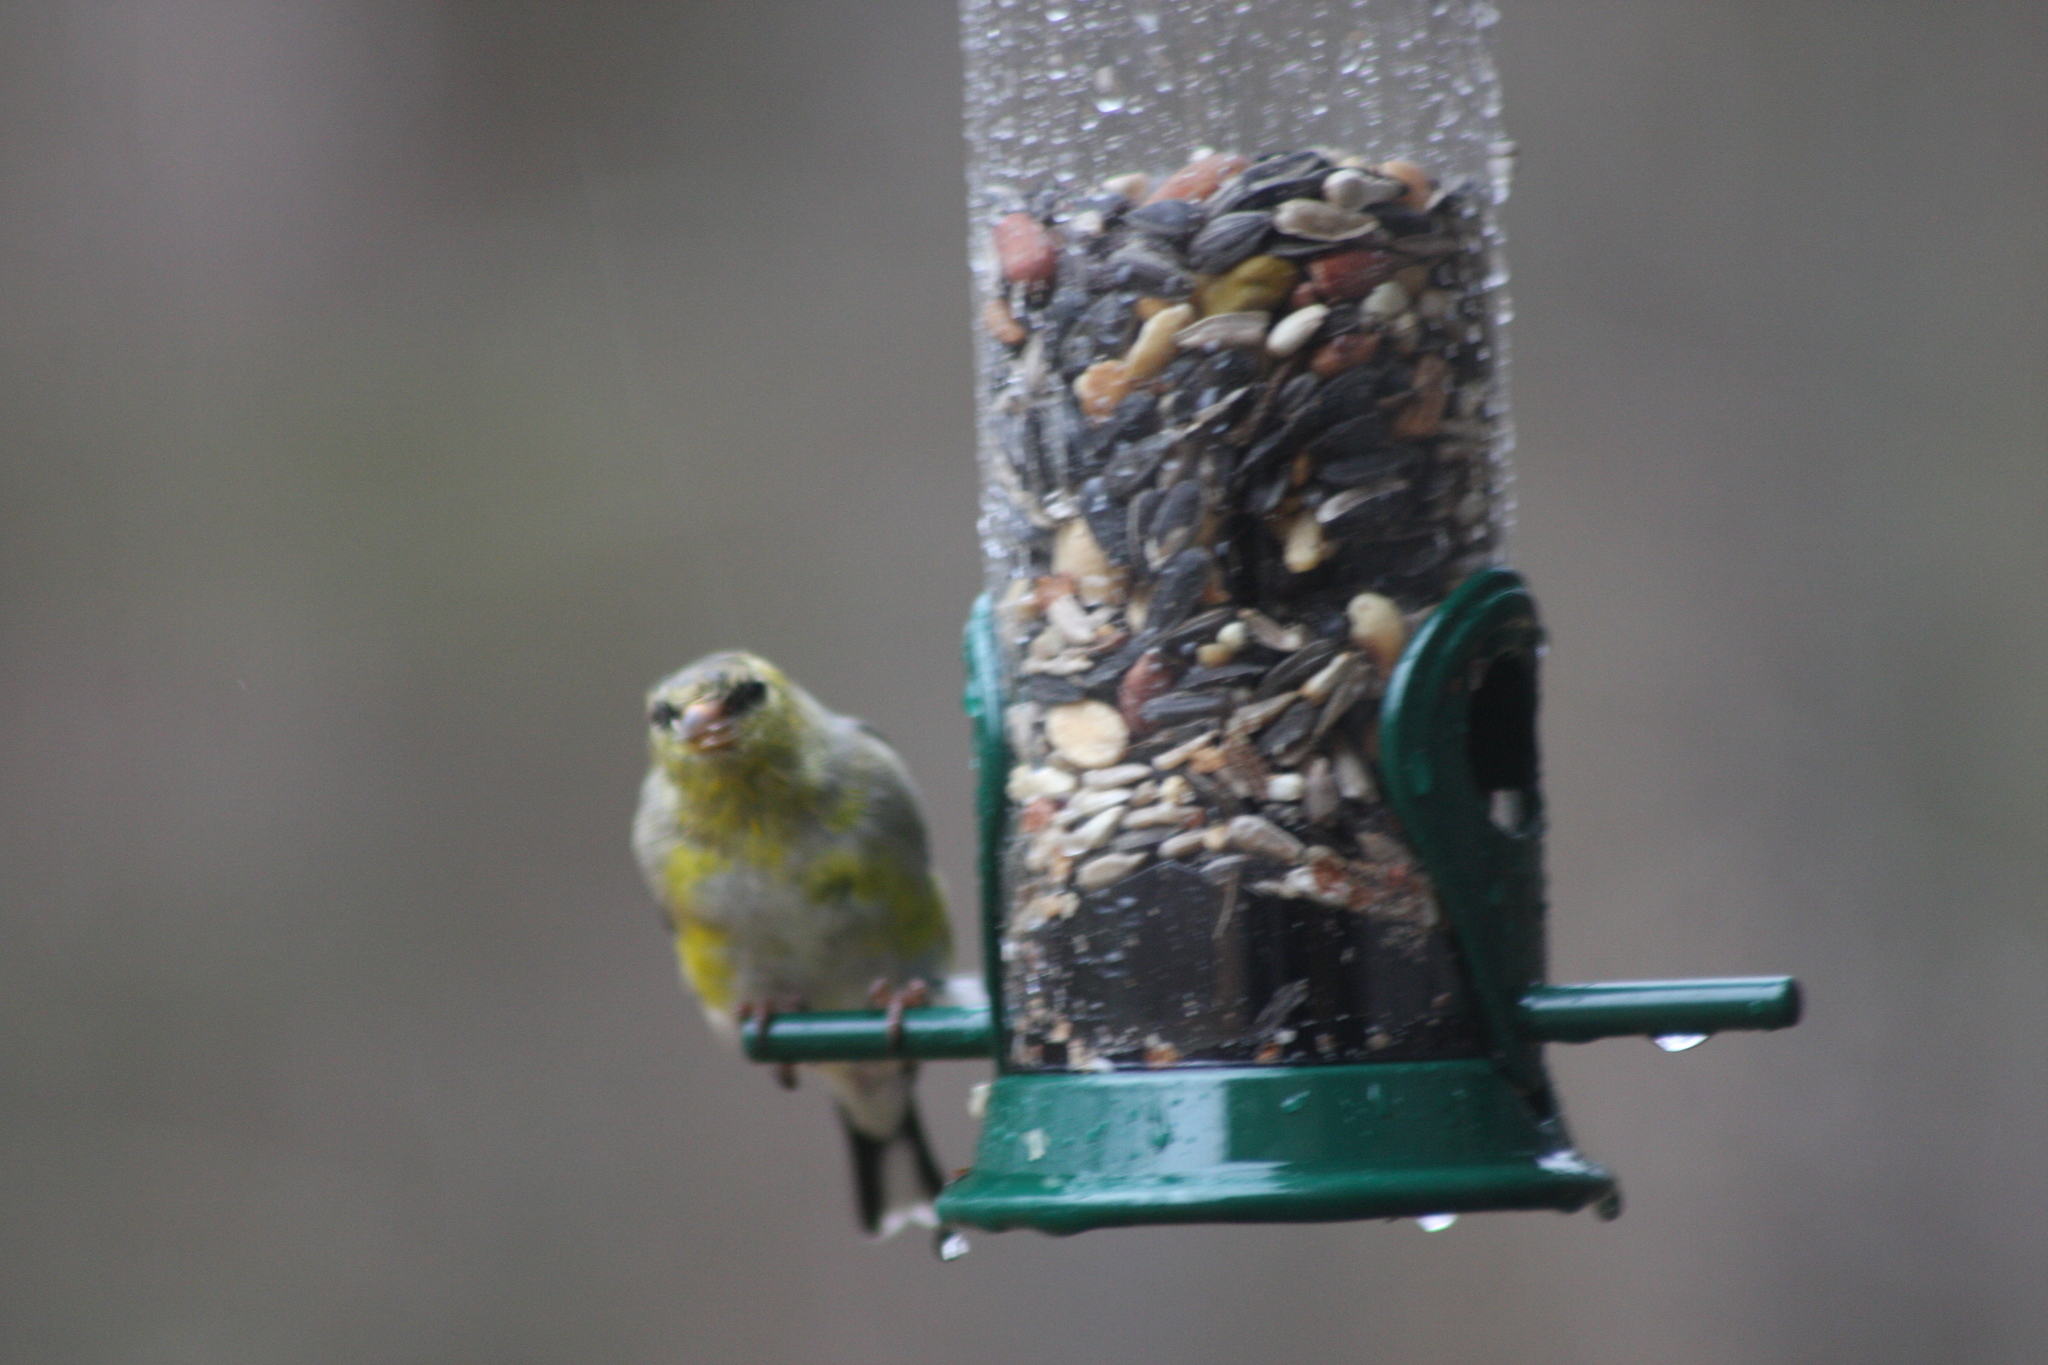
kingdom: Animalia
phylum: Chordata
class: Aves
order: Passeriformes
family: Fringillidae
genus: Spinus
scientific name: Spinus tristis
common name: American goldfinch
